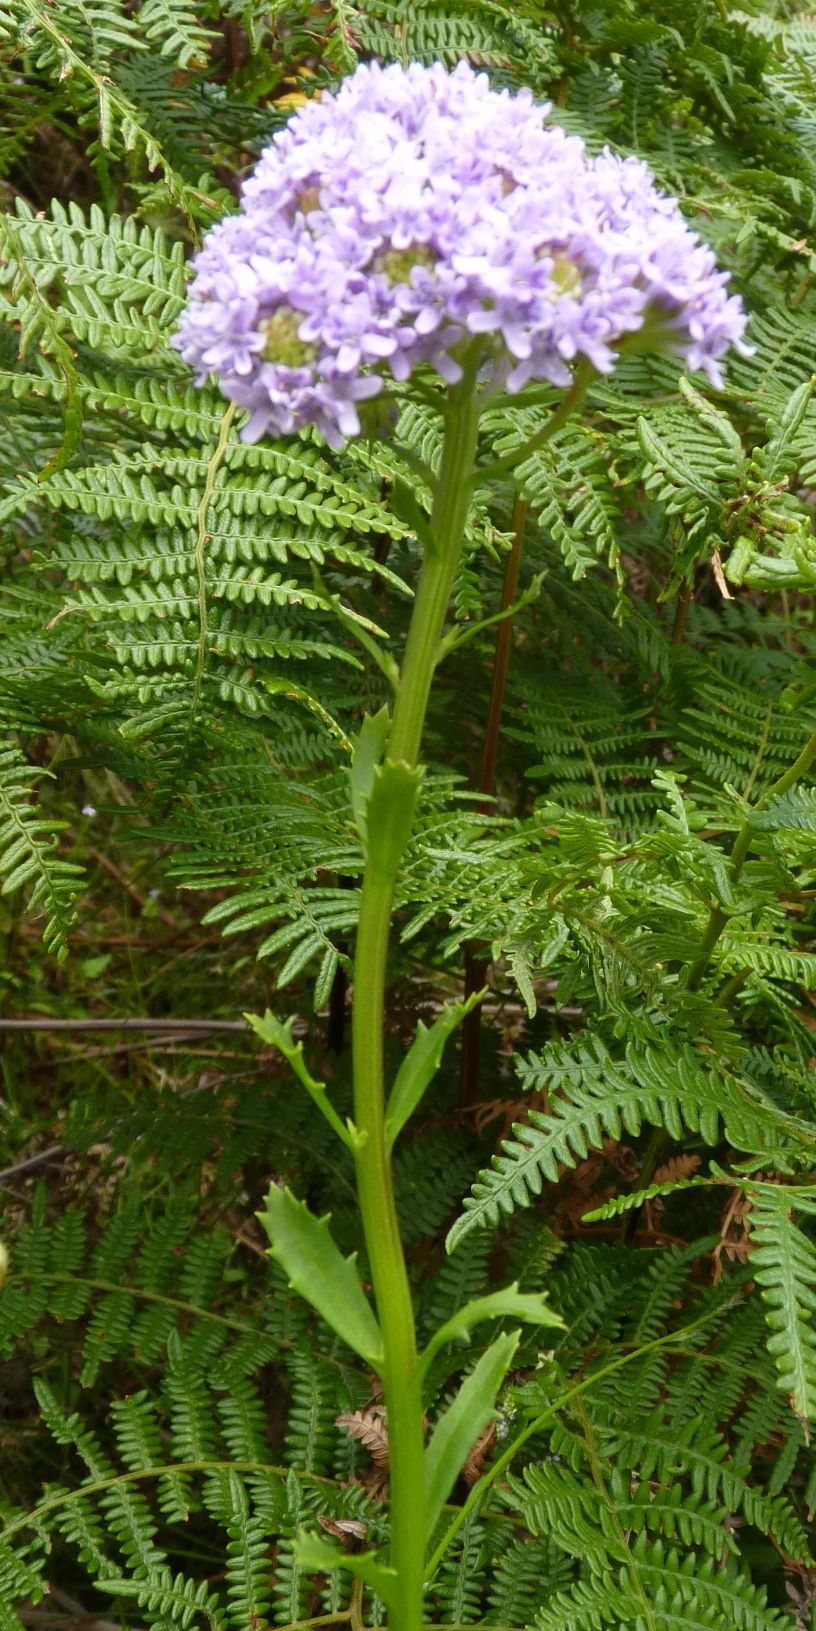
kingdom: Plantae
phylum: Tracheophyta
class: Magnoliopsida
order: Lamiales
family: Scrophulariaceae
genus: Pseudoselago
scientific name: Pseudoselago langebergensis
